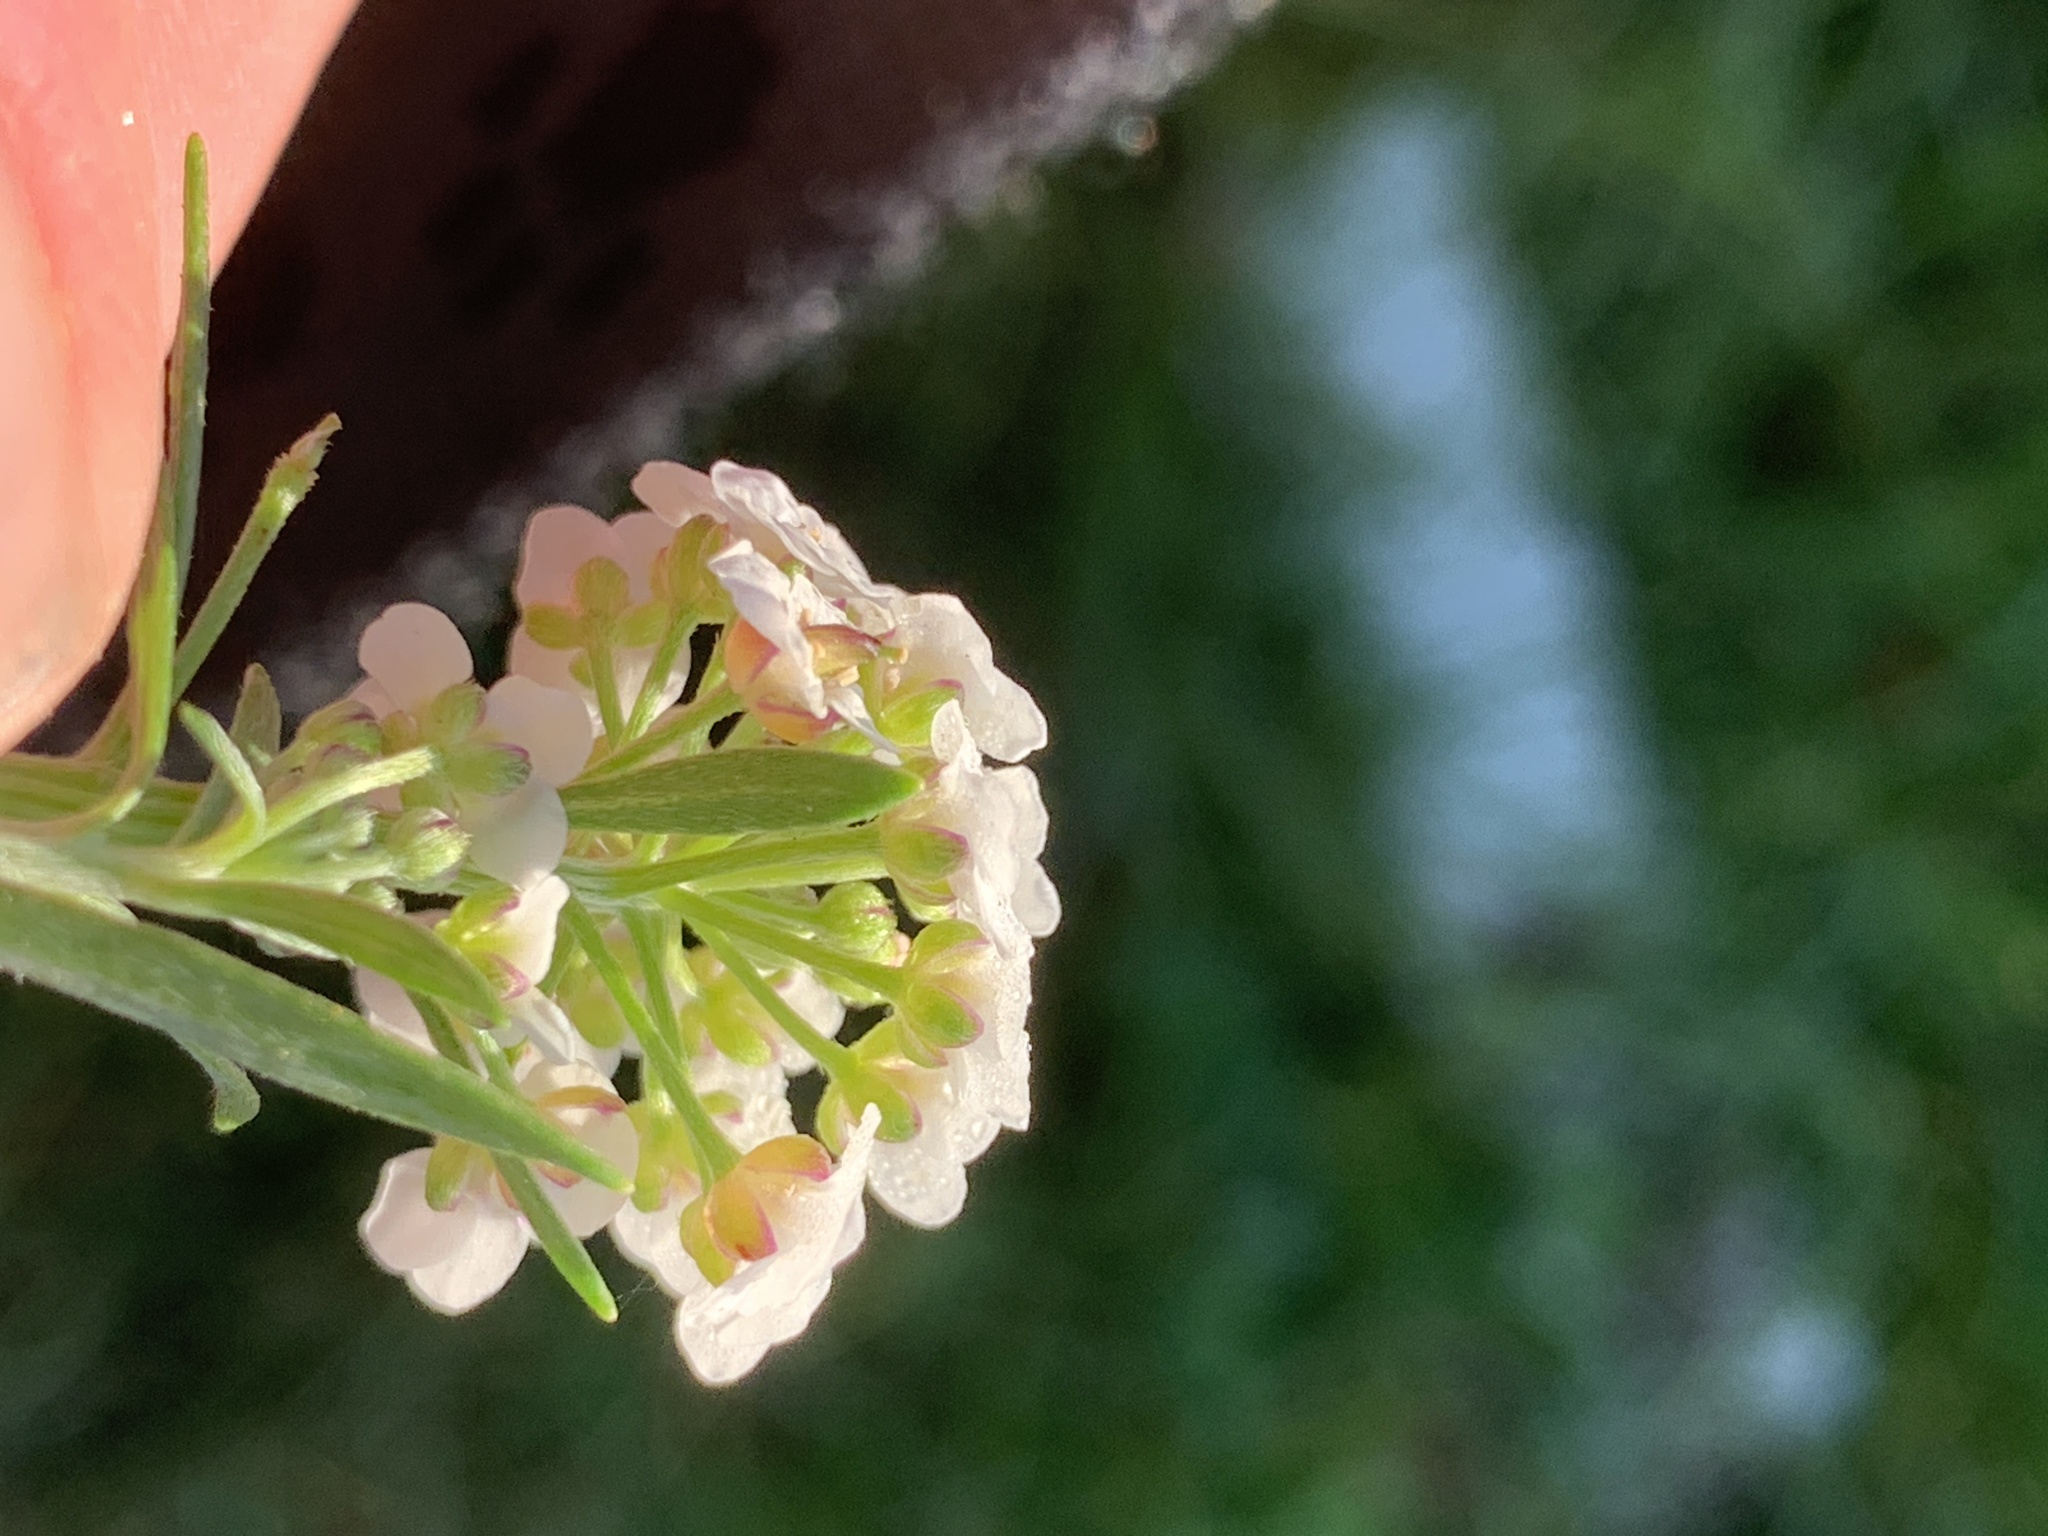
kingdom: Plantae
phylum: Tracheophyta
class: Magnoliopsida
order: Brassicales
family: Brassicaceae
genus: Lobularia
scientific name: Lobularia maritima
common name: Sweet alison
